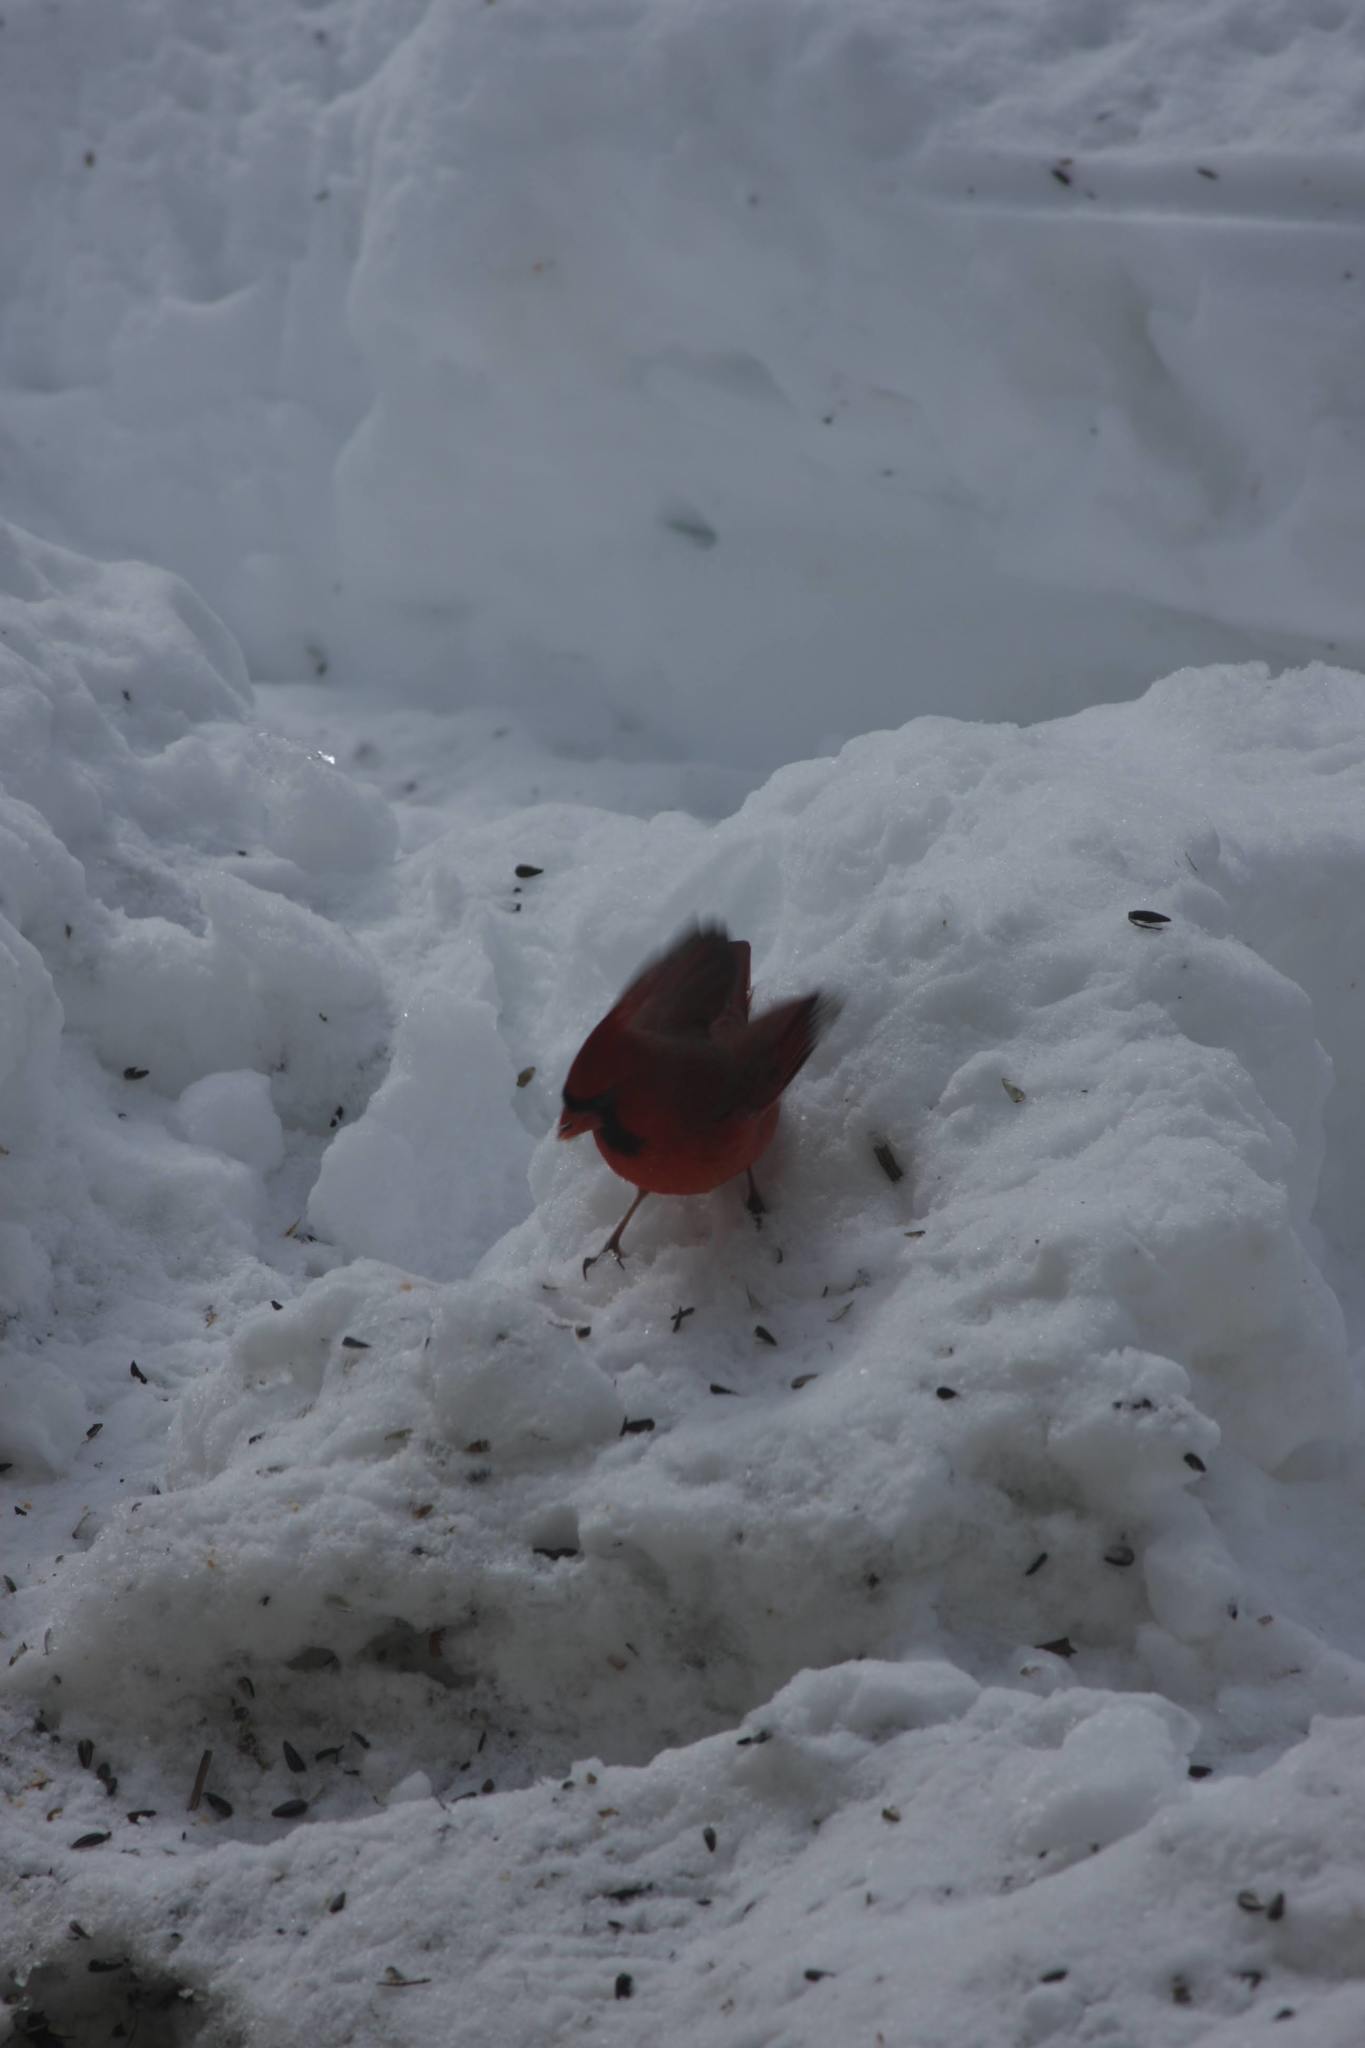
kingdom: Animalia
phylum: Chordata
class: Aves
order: Passeriformes
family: Cardinalidae
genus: Cardinalis
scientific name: Cardinalis cardinalis
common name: Northern cardinal
